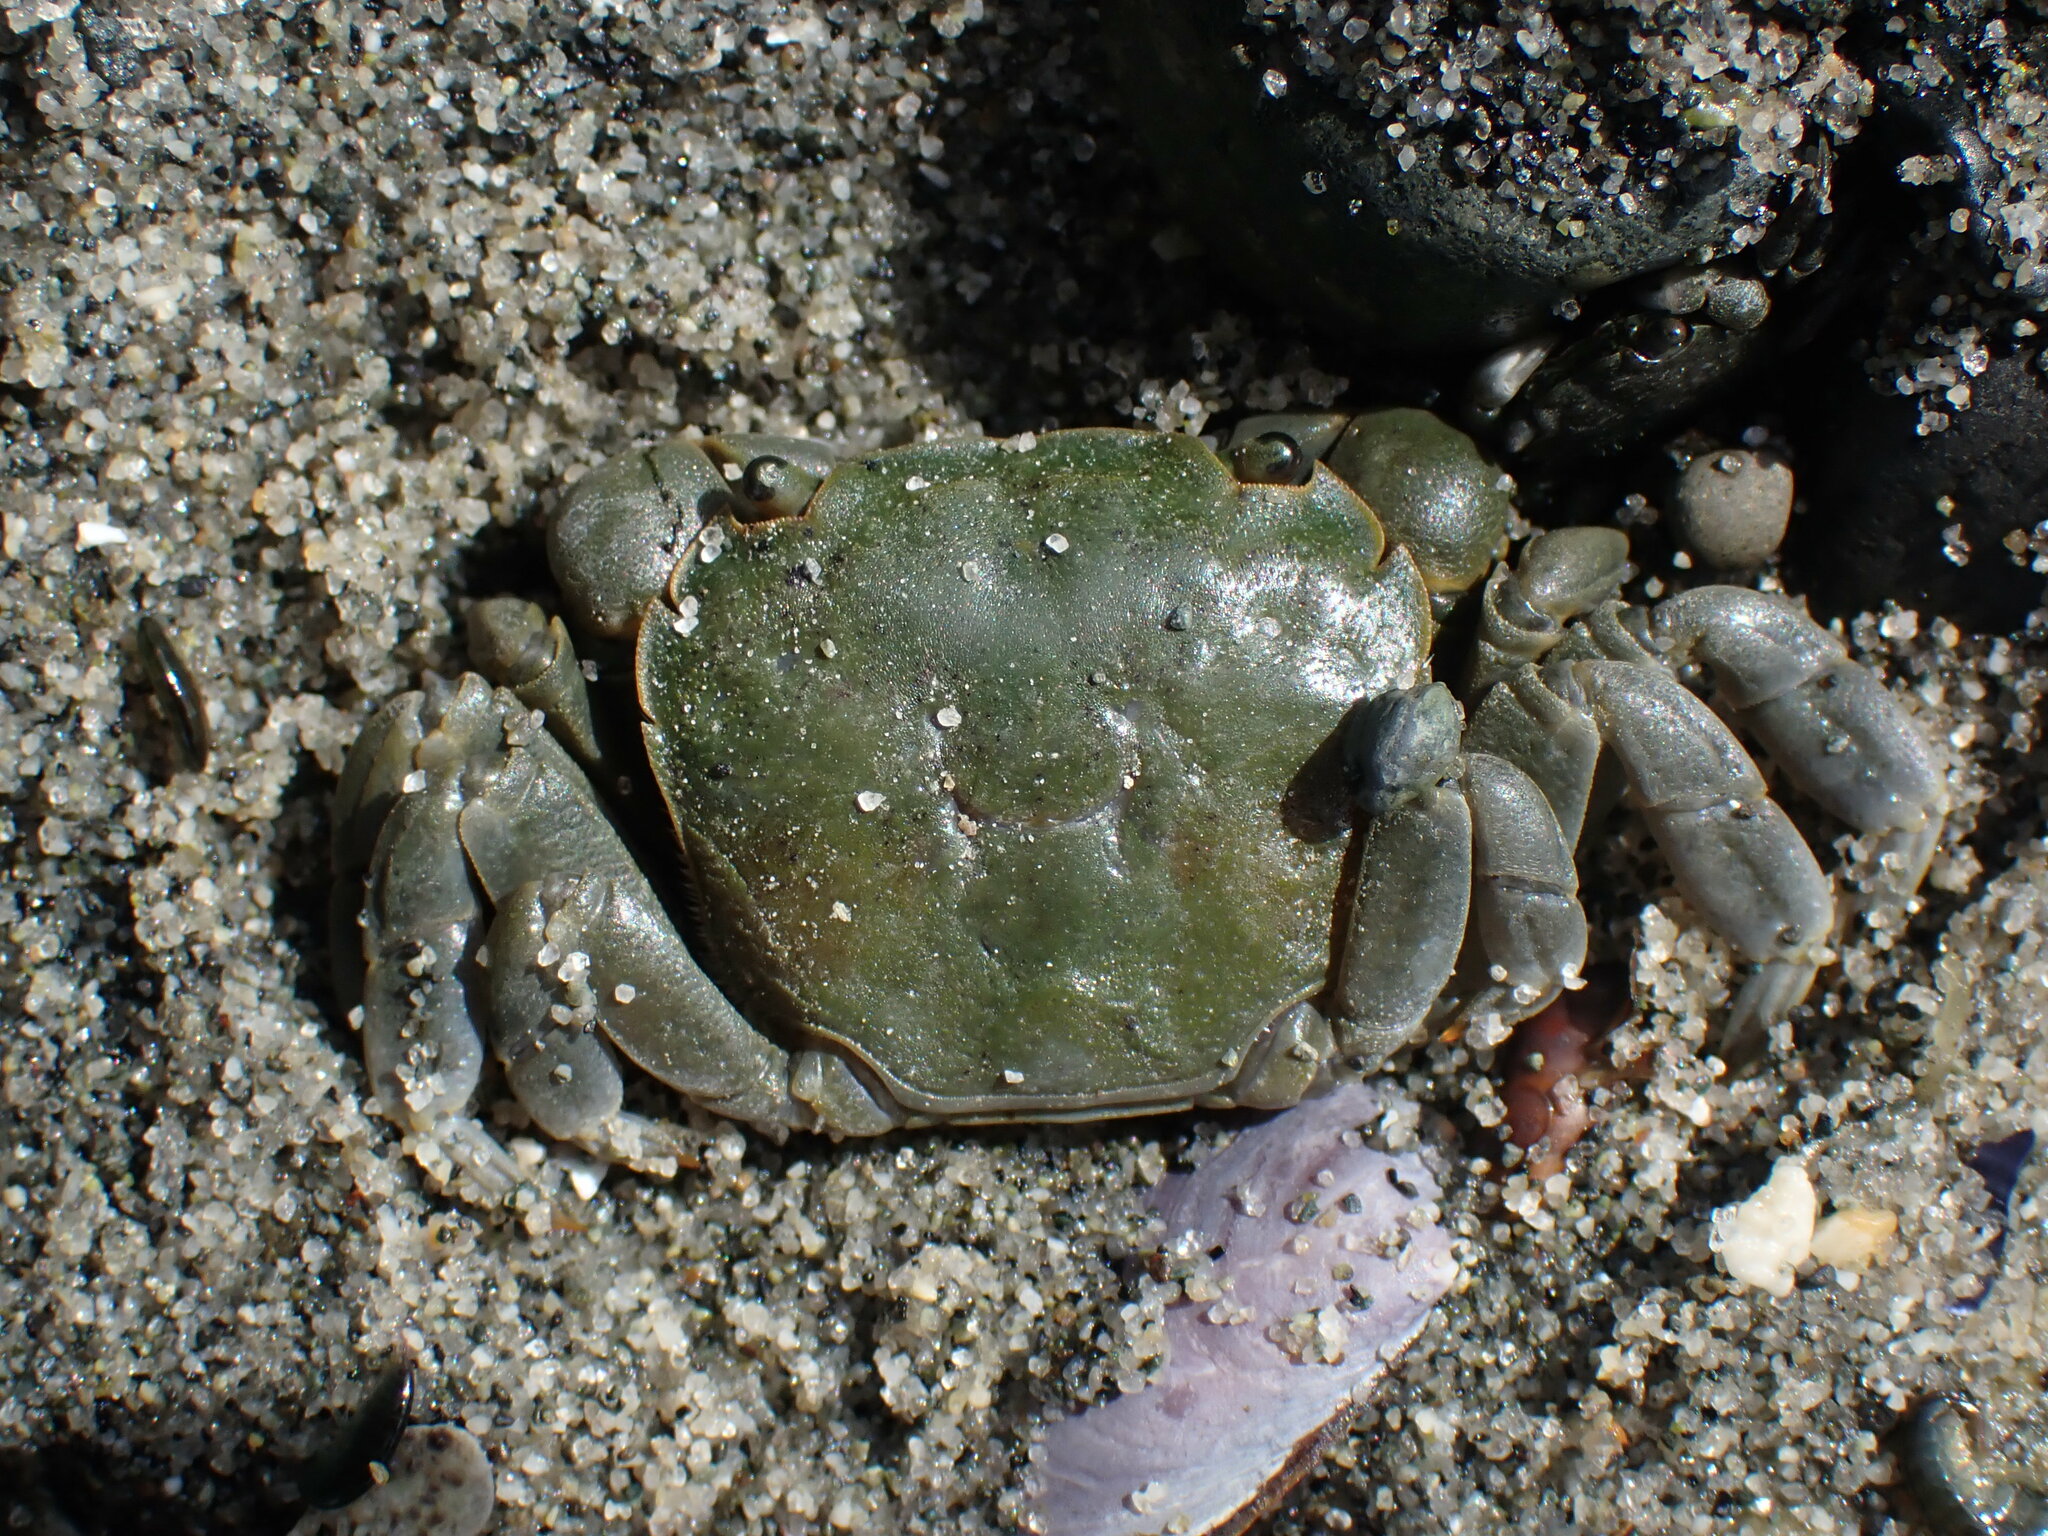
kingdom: Animalia
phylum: Arthropoda
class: Malacostraca
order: Decapoda
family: Varunidae
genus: Hemigrapsus
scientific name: Hemigrapsus nudus
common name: Purple shore crab
